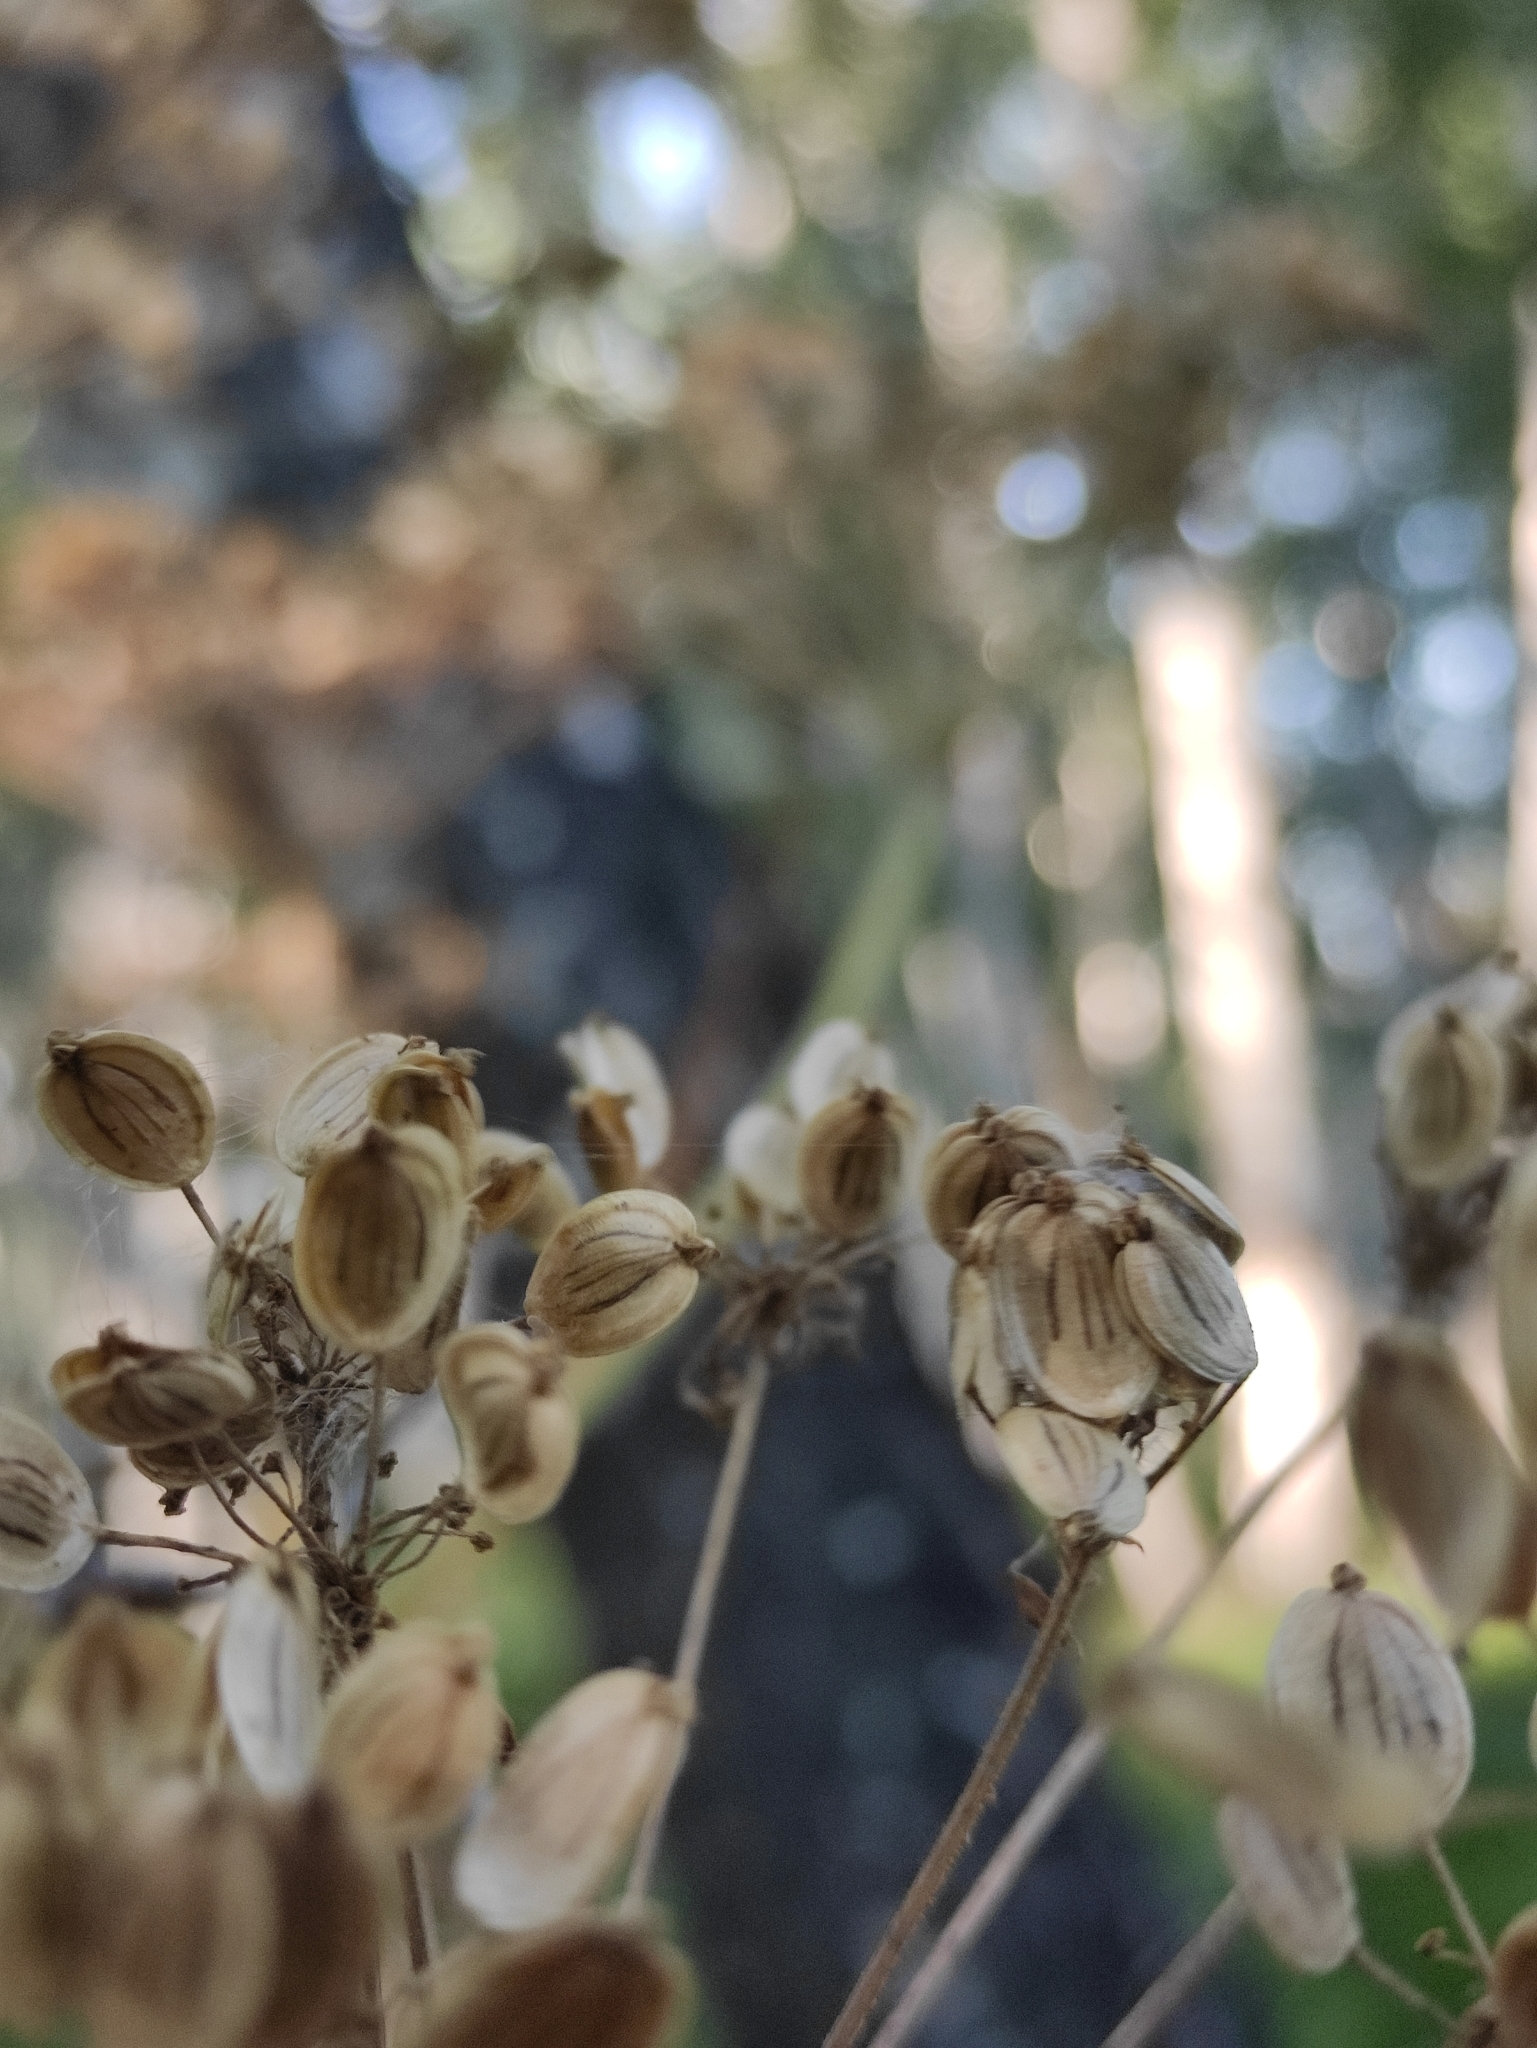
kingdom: Plantae
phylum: Tracheophyta
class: Magnoliopsida
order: Apiales
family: Apiaceae
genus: Heracleum
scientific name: Heracleum dissectum
